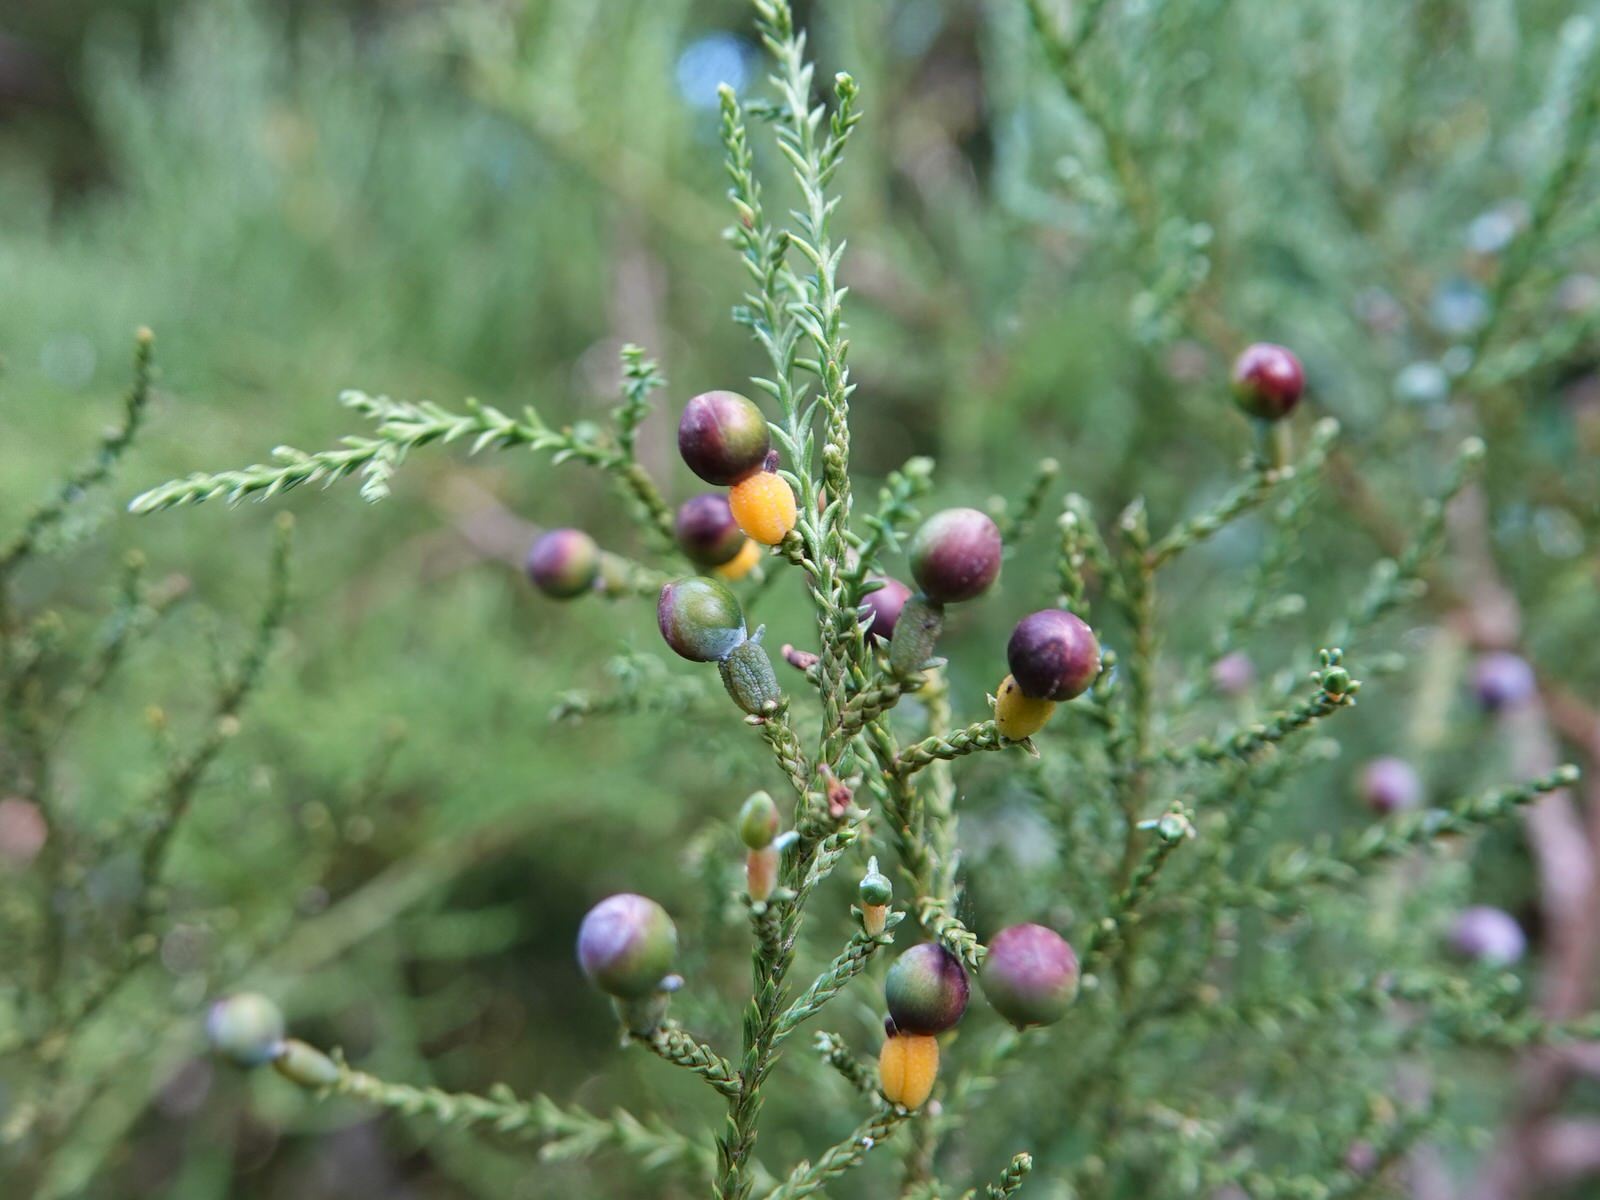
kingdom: Plantae
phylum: Tracheophyta
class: Pinopsida
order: Pinales
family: Podocarpaceae
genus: Dacrycarpus
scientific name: Dacrycarpus dacrydioides
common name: White pine
